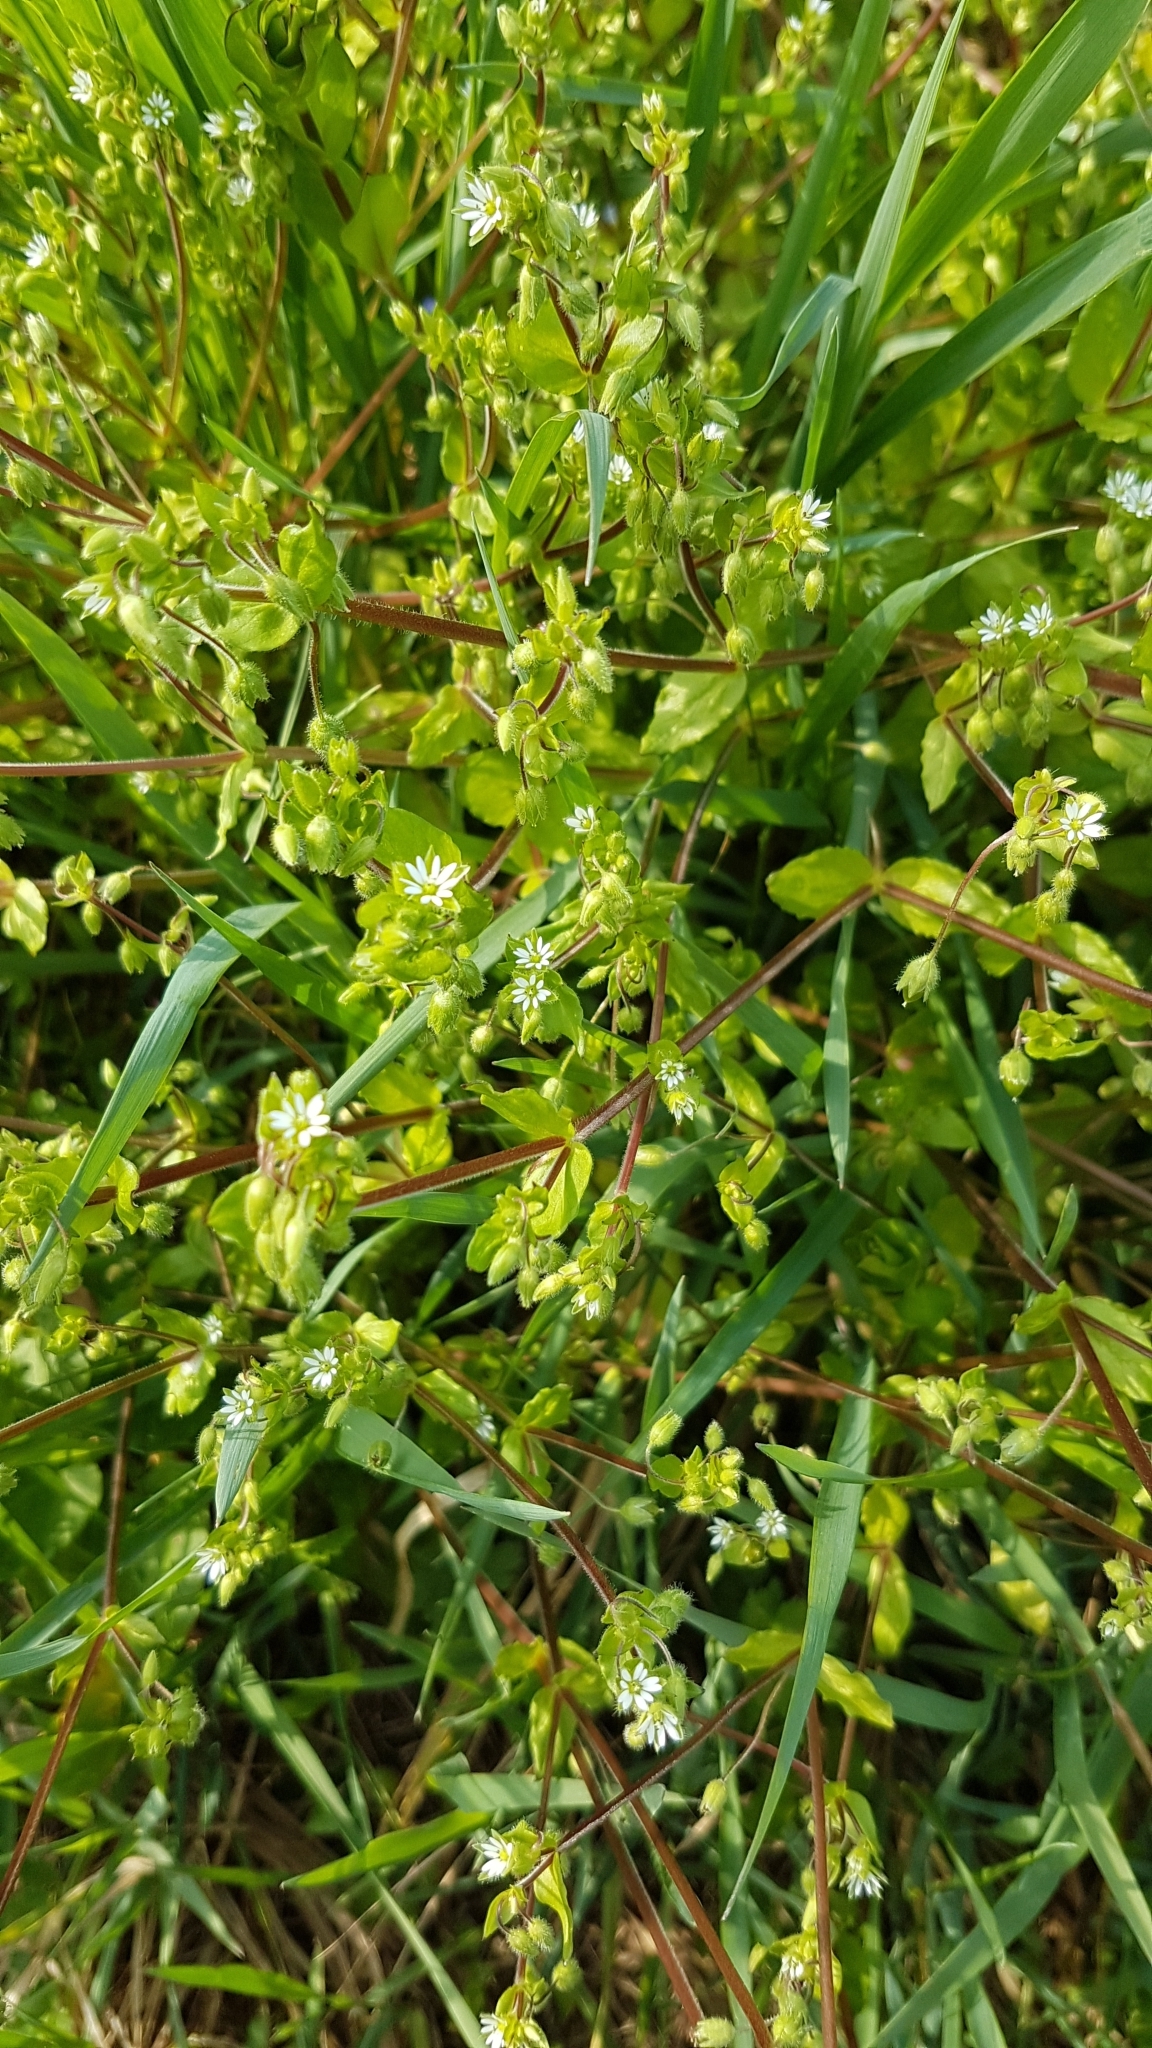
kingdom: Plantae
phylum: Tracheophyta
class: Magnoliopsida
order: Caryophyllales
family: Caryophyllaceae
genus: Stellaria
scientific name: Stellaria media
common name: Common chickweed
